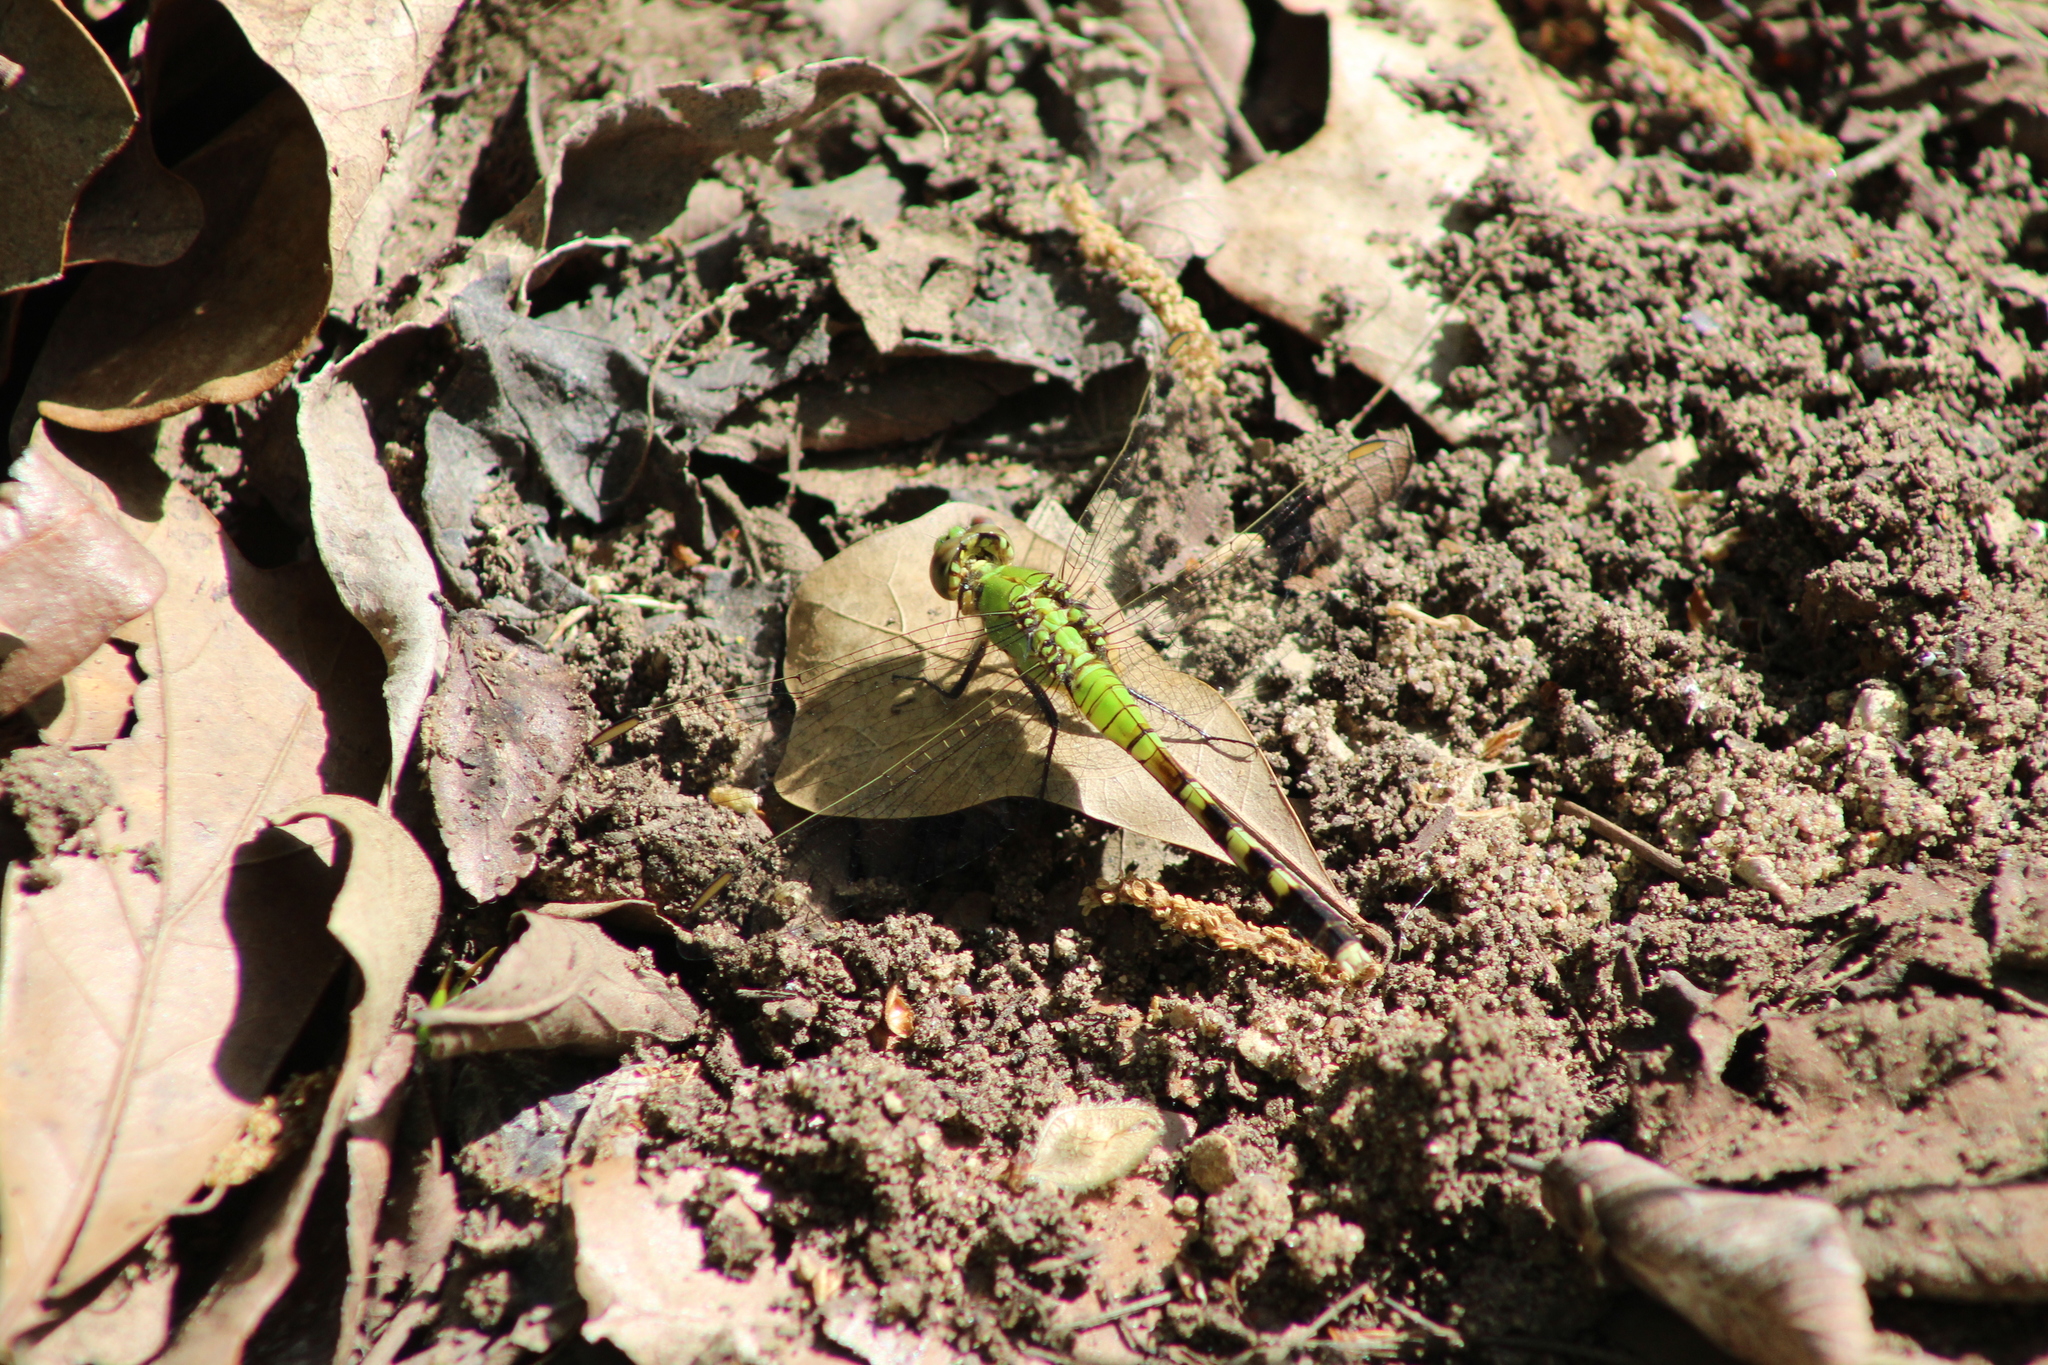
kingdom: Animalia
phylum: Arthropoda
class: Insecta
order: Odonata
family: Libellulidae
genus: Erythemis
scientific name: Erythemis simplicicollis
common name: Eastern pondhawk
